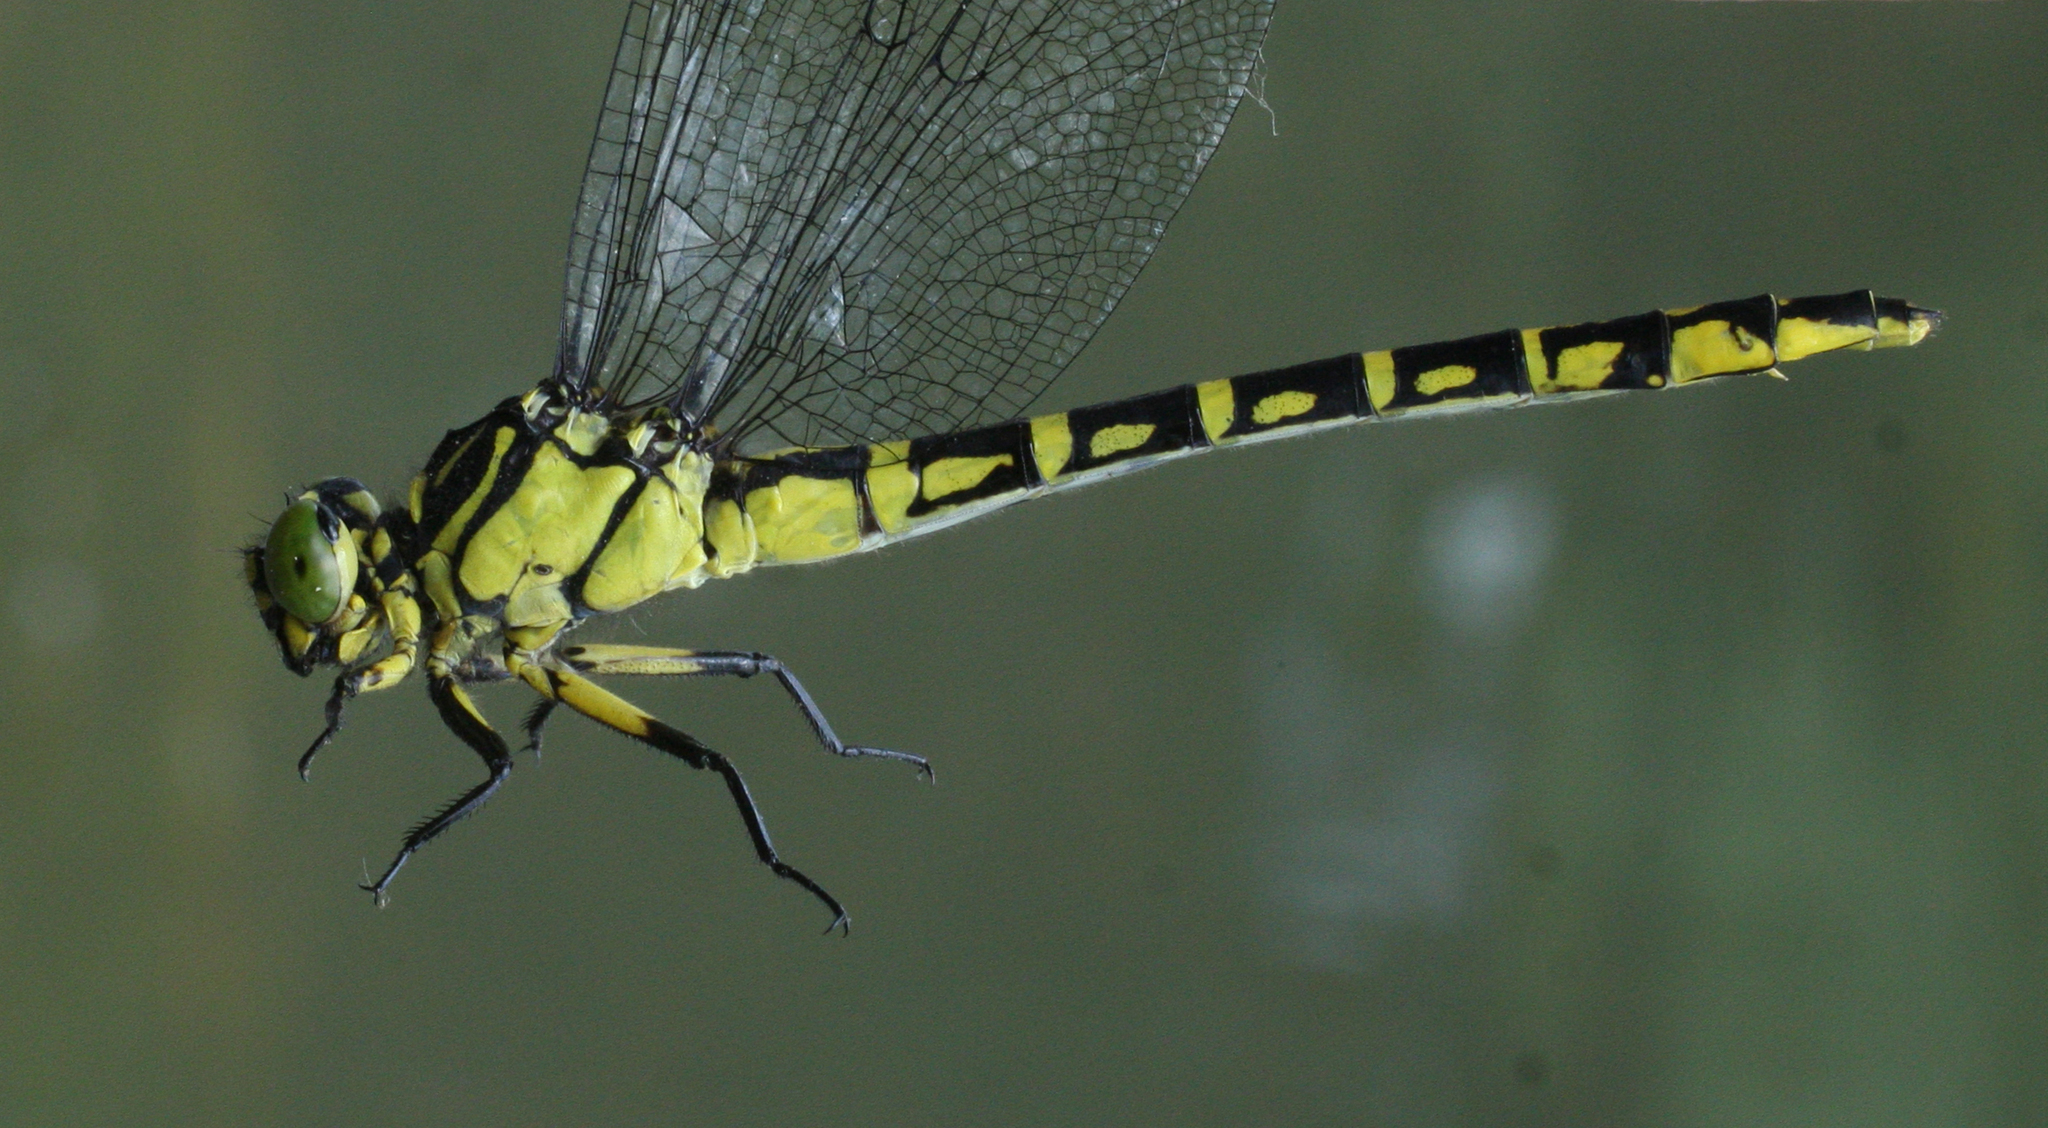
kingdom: Animalia
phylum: Arthropoda
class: Insecta
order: Odonata
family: Gomphidae
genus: Stylurus
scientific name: Stylurus annulatus
